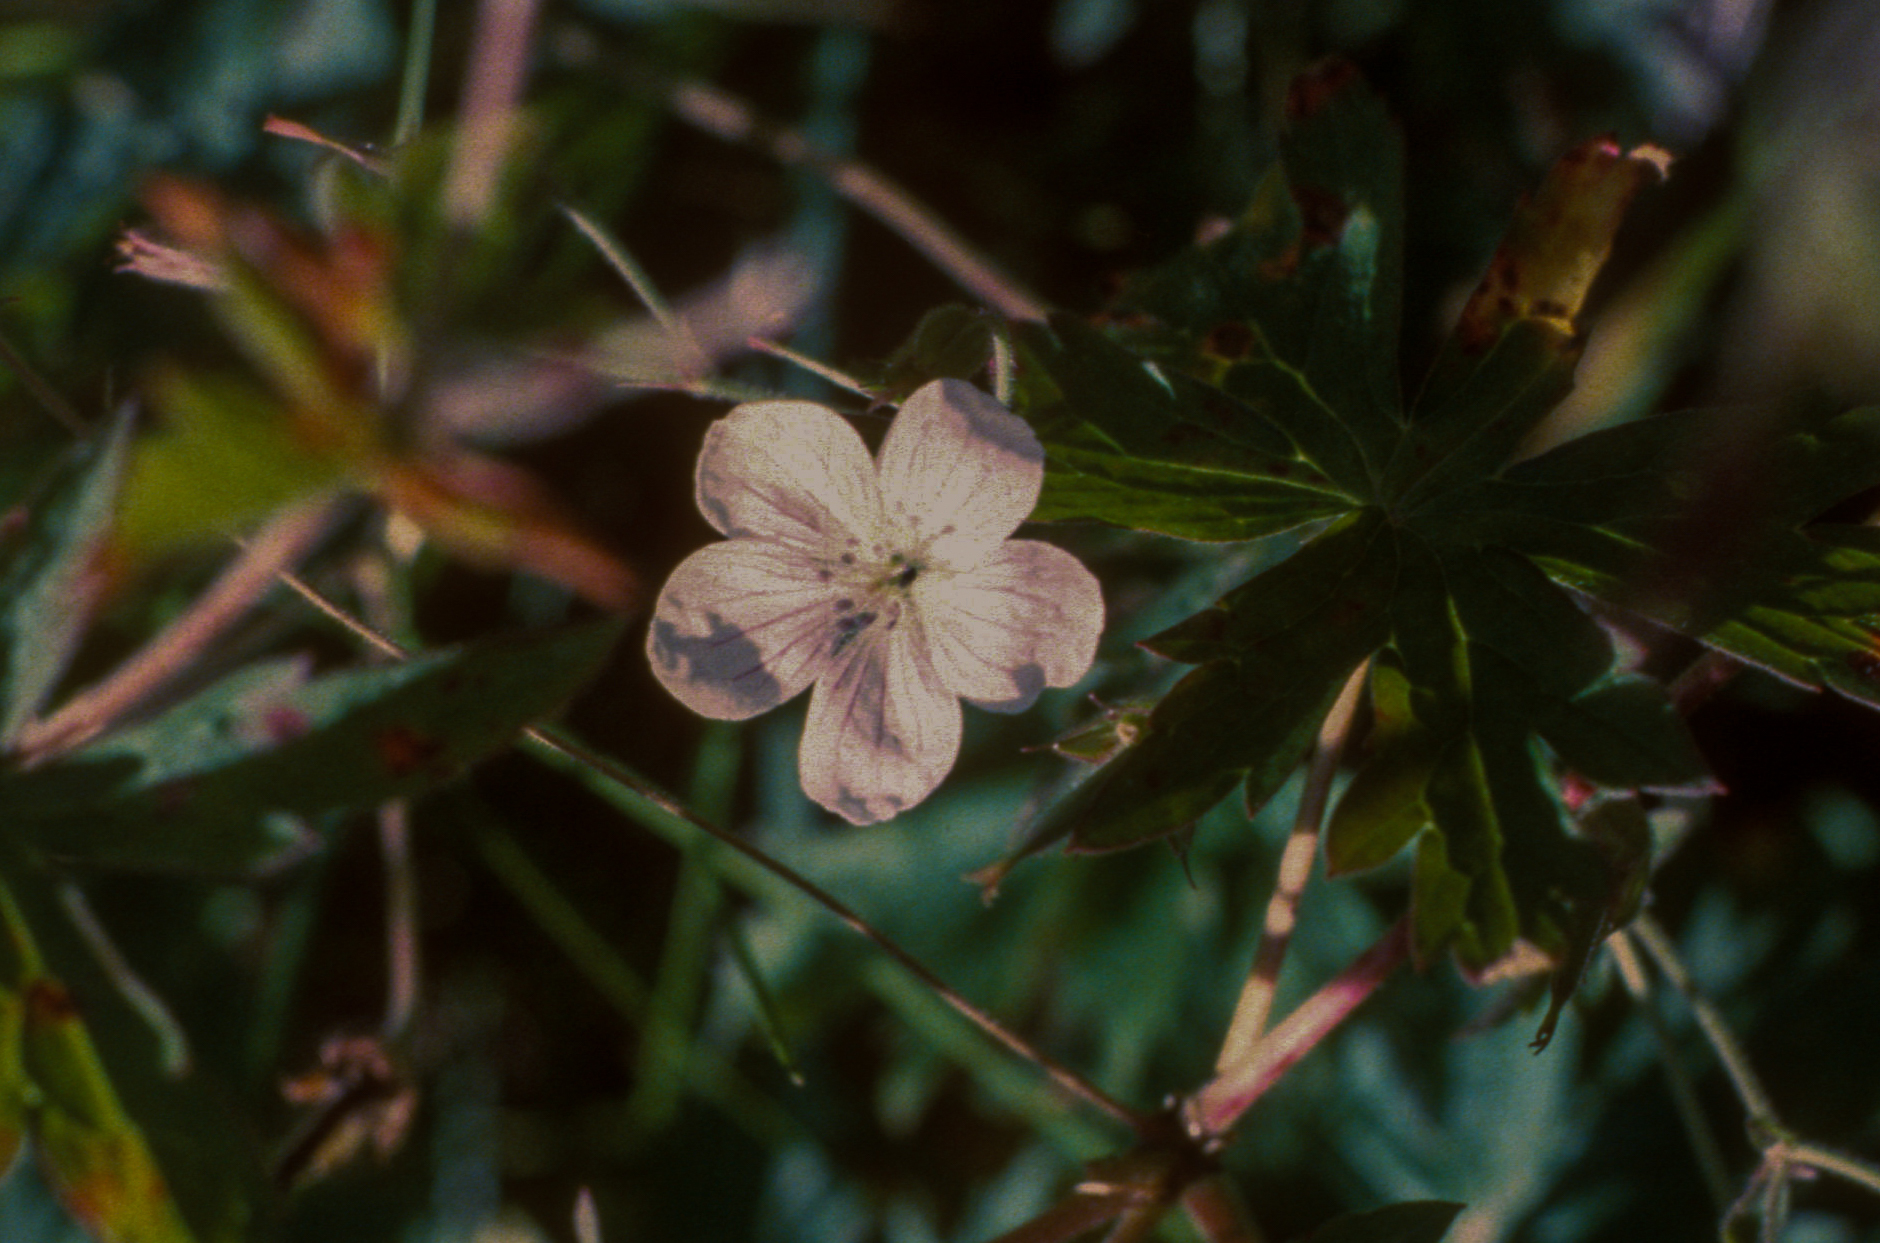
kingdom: Plantae
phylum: Tracheophyta
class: Magnoliopsida
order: Geraniales
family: Geraniaceae
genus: Geranium
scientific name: Geranium richardsonii
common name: Richardson's crane's-bill
